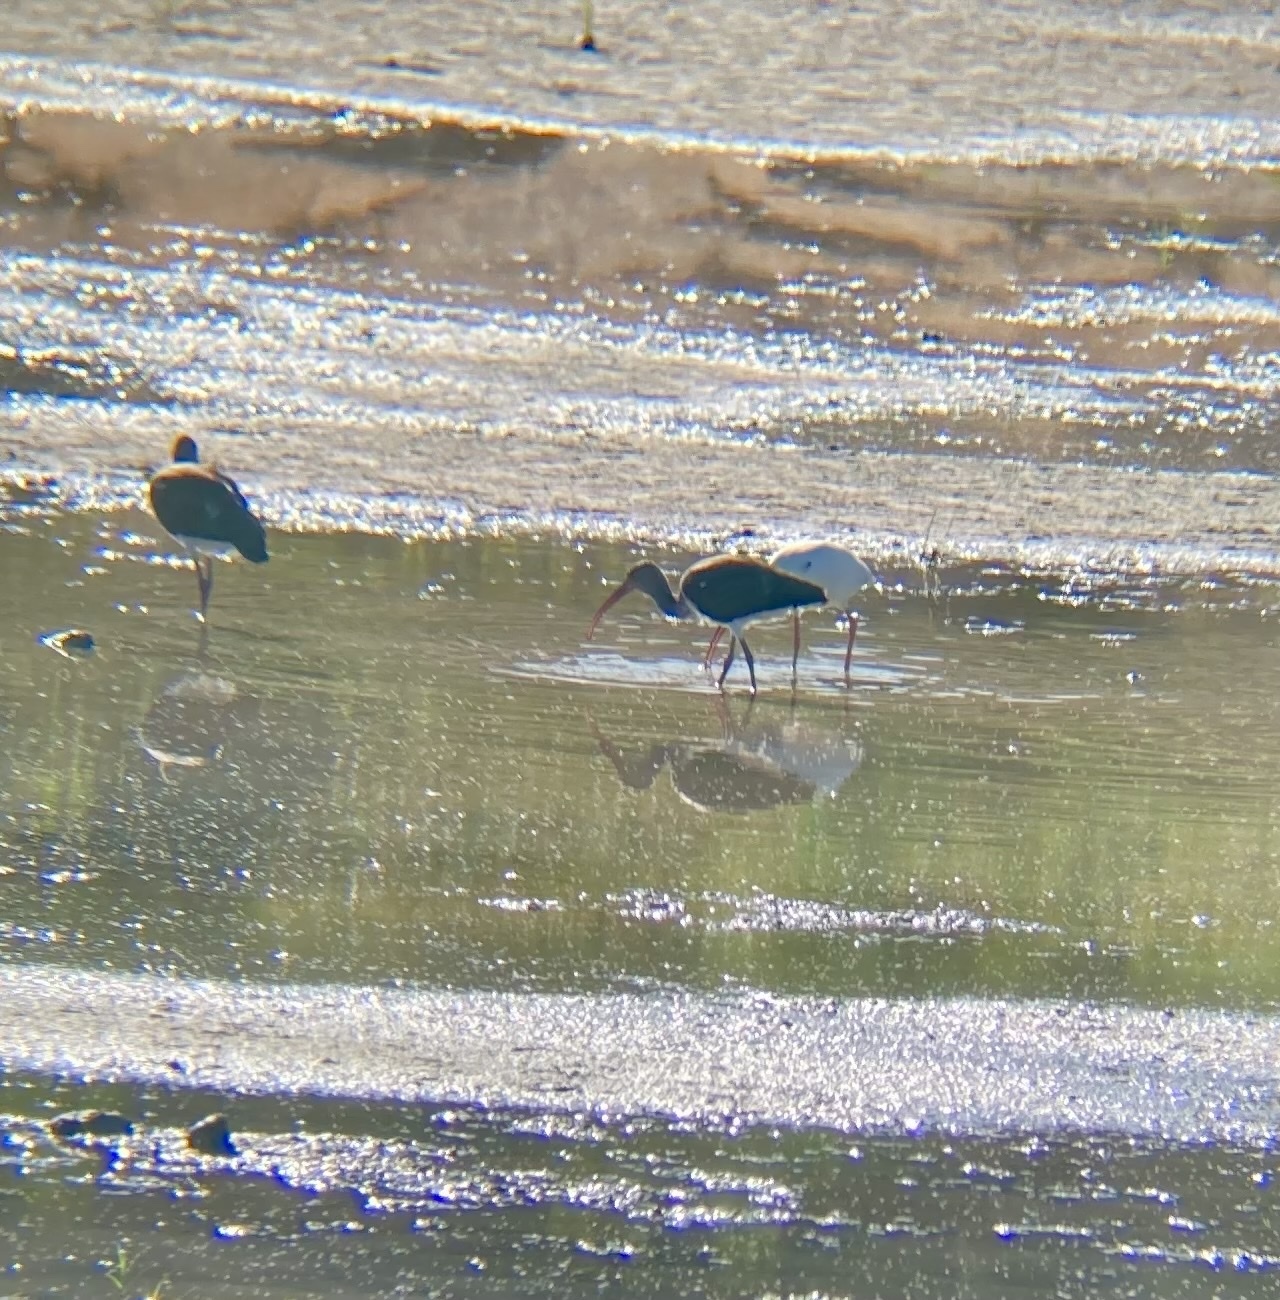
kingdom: Animalia
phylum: Chordata
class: Aves
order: Pelecaniformes
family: Threskiornithidae
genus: Eudocimus
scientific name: Eudocimus albus
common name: White ibis
